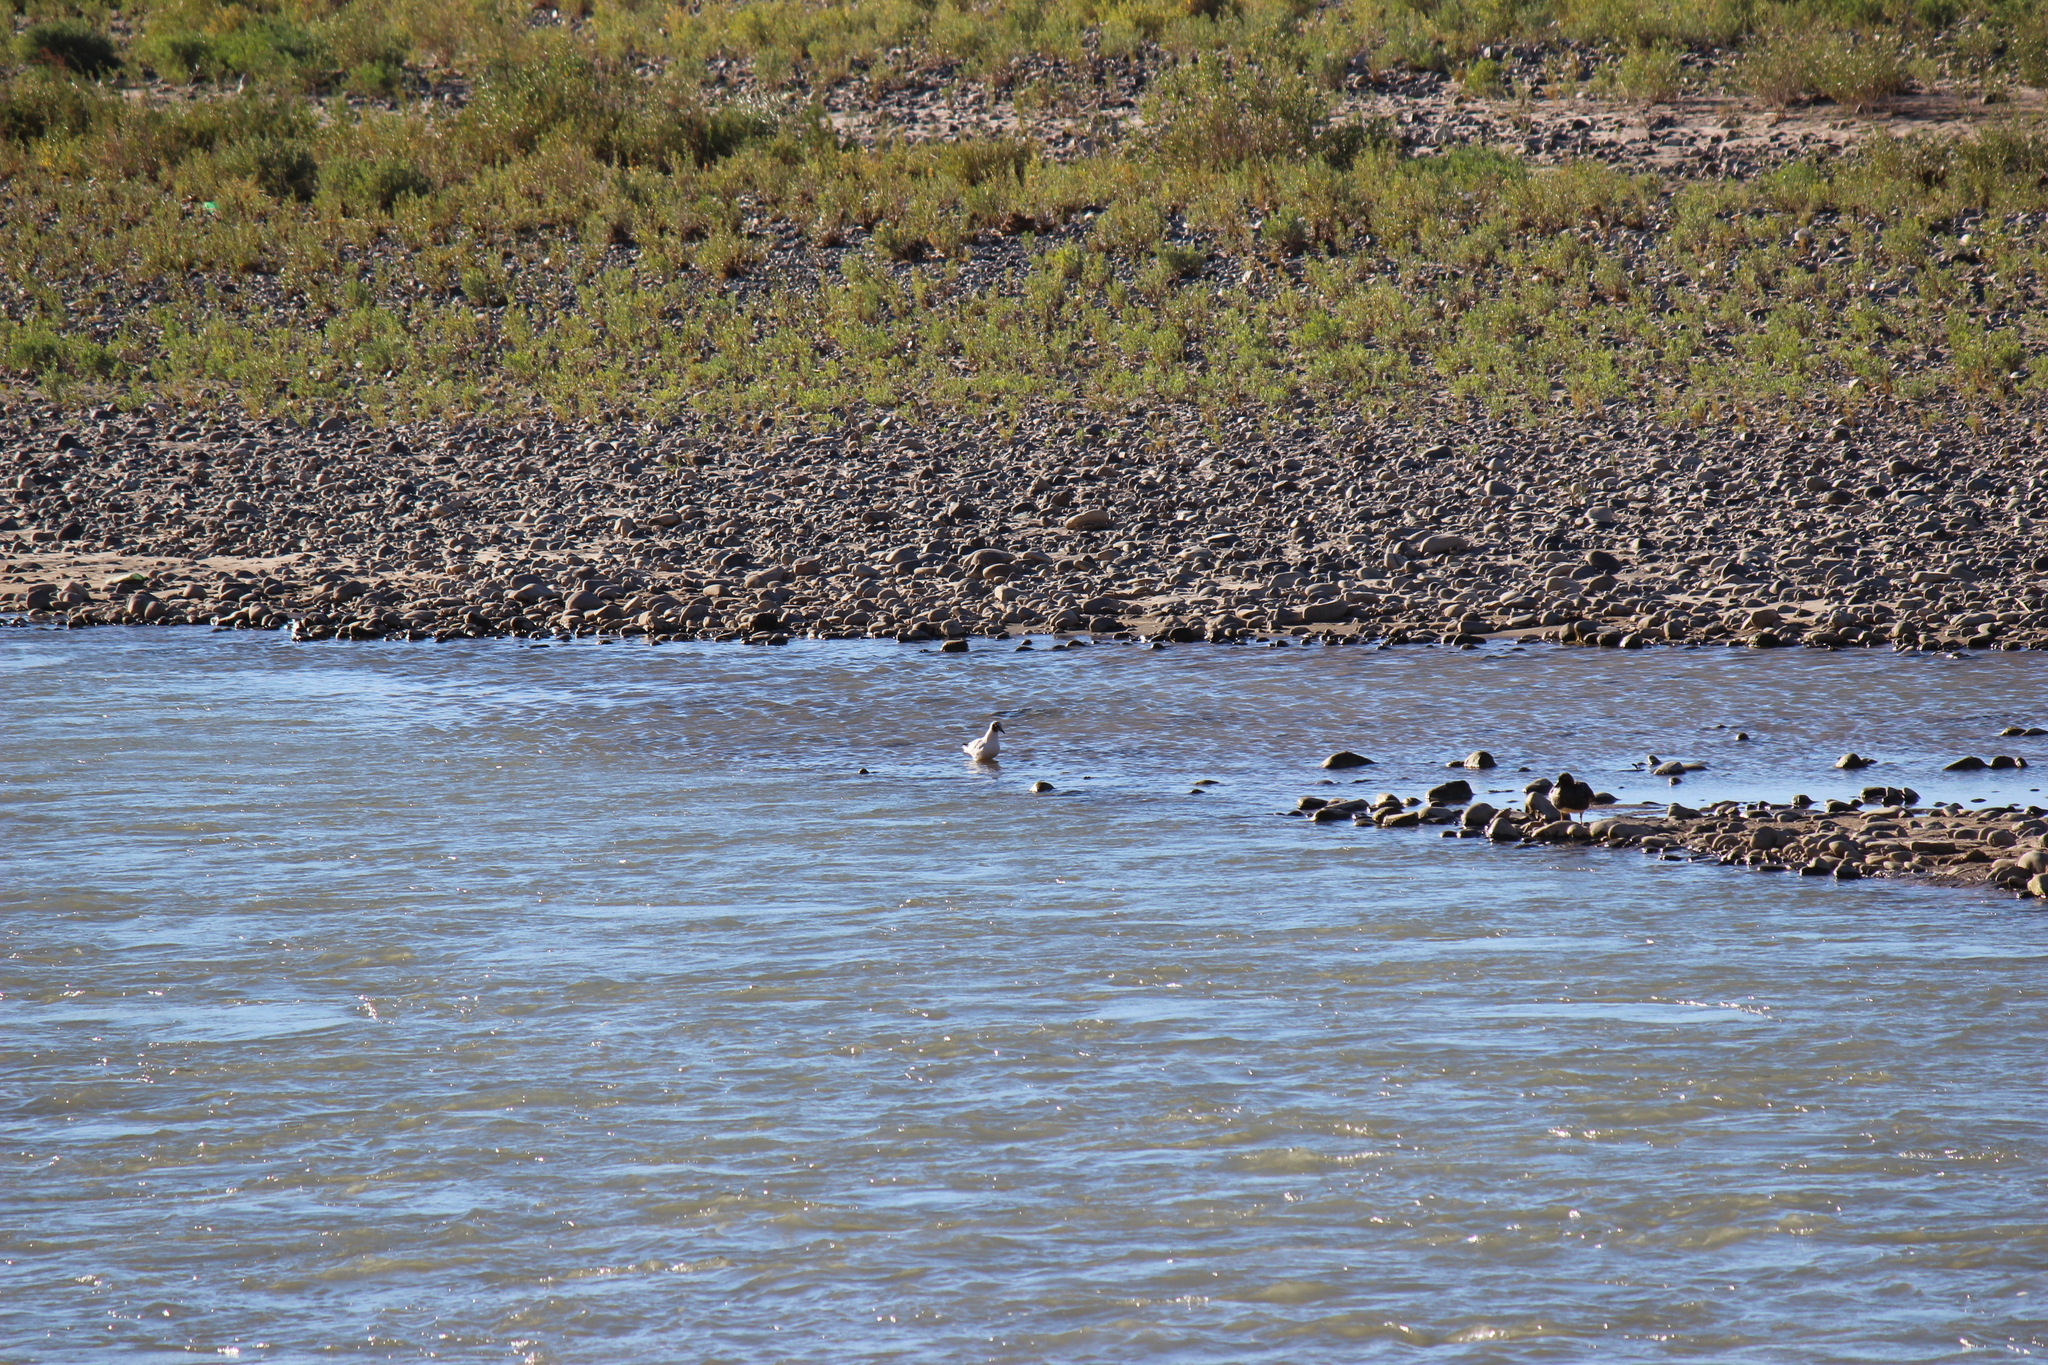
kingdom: Animalia
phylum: Chordata
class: Aves
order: Charadriiformes
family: Laridae
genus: Chroicocephalus
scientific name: Chroicocephalus serranus
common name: Andean gull
